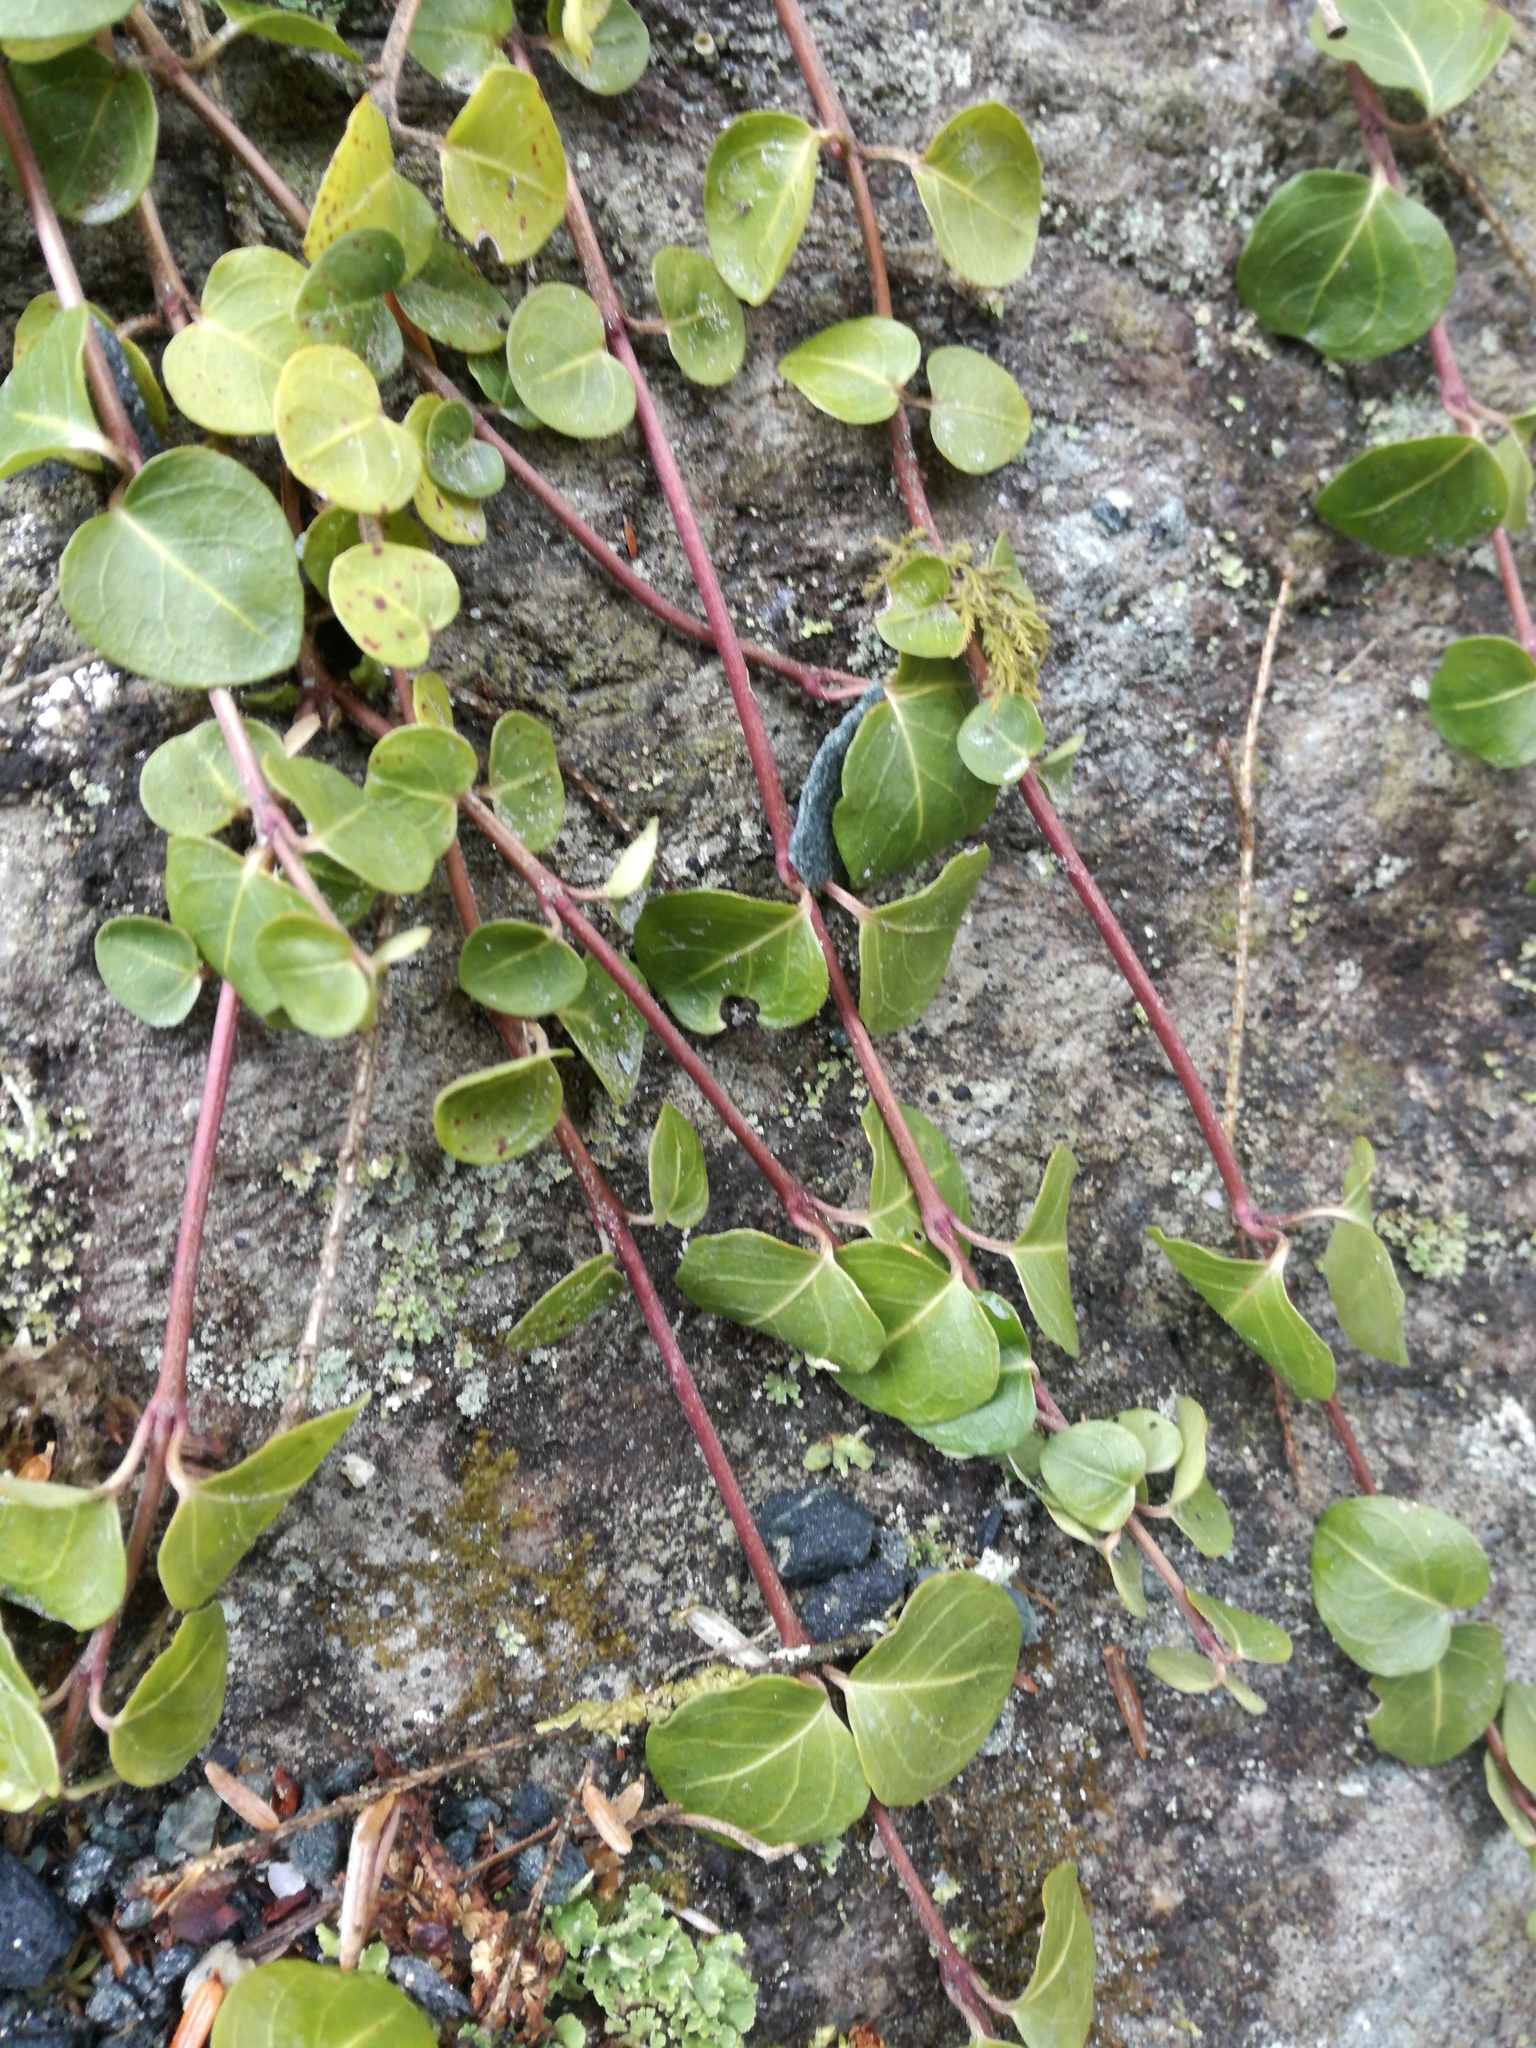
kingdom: Plantae
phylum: Tracheophyta
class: Magnoliopsida
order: Gentianales
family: Rubiaceae
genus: Mitchella
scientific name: Mitchella repens
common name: Partridge-berry
